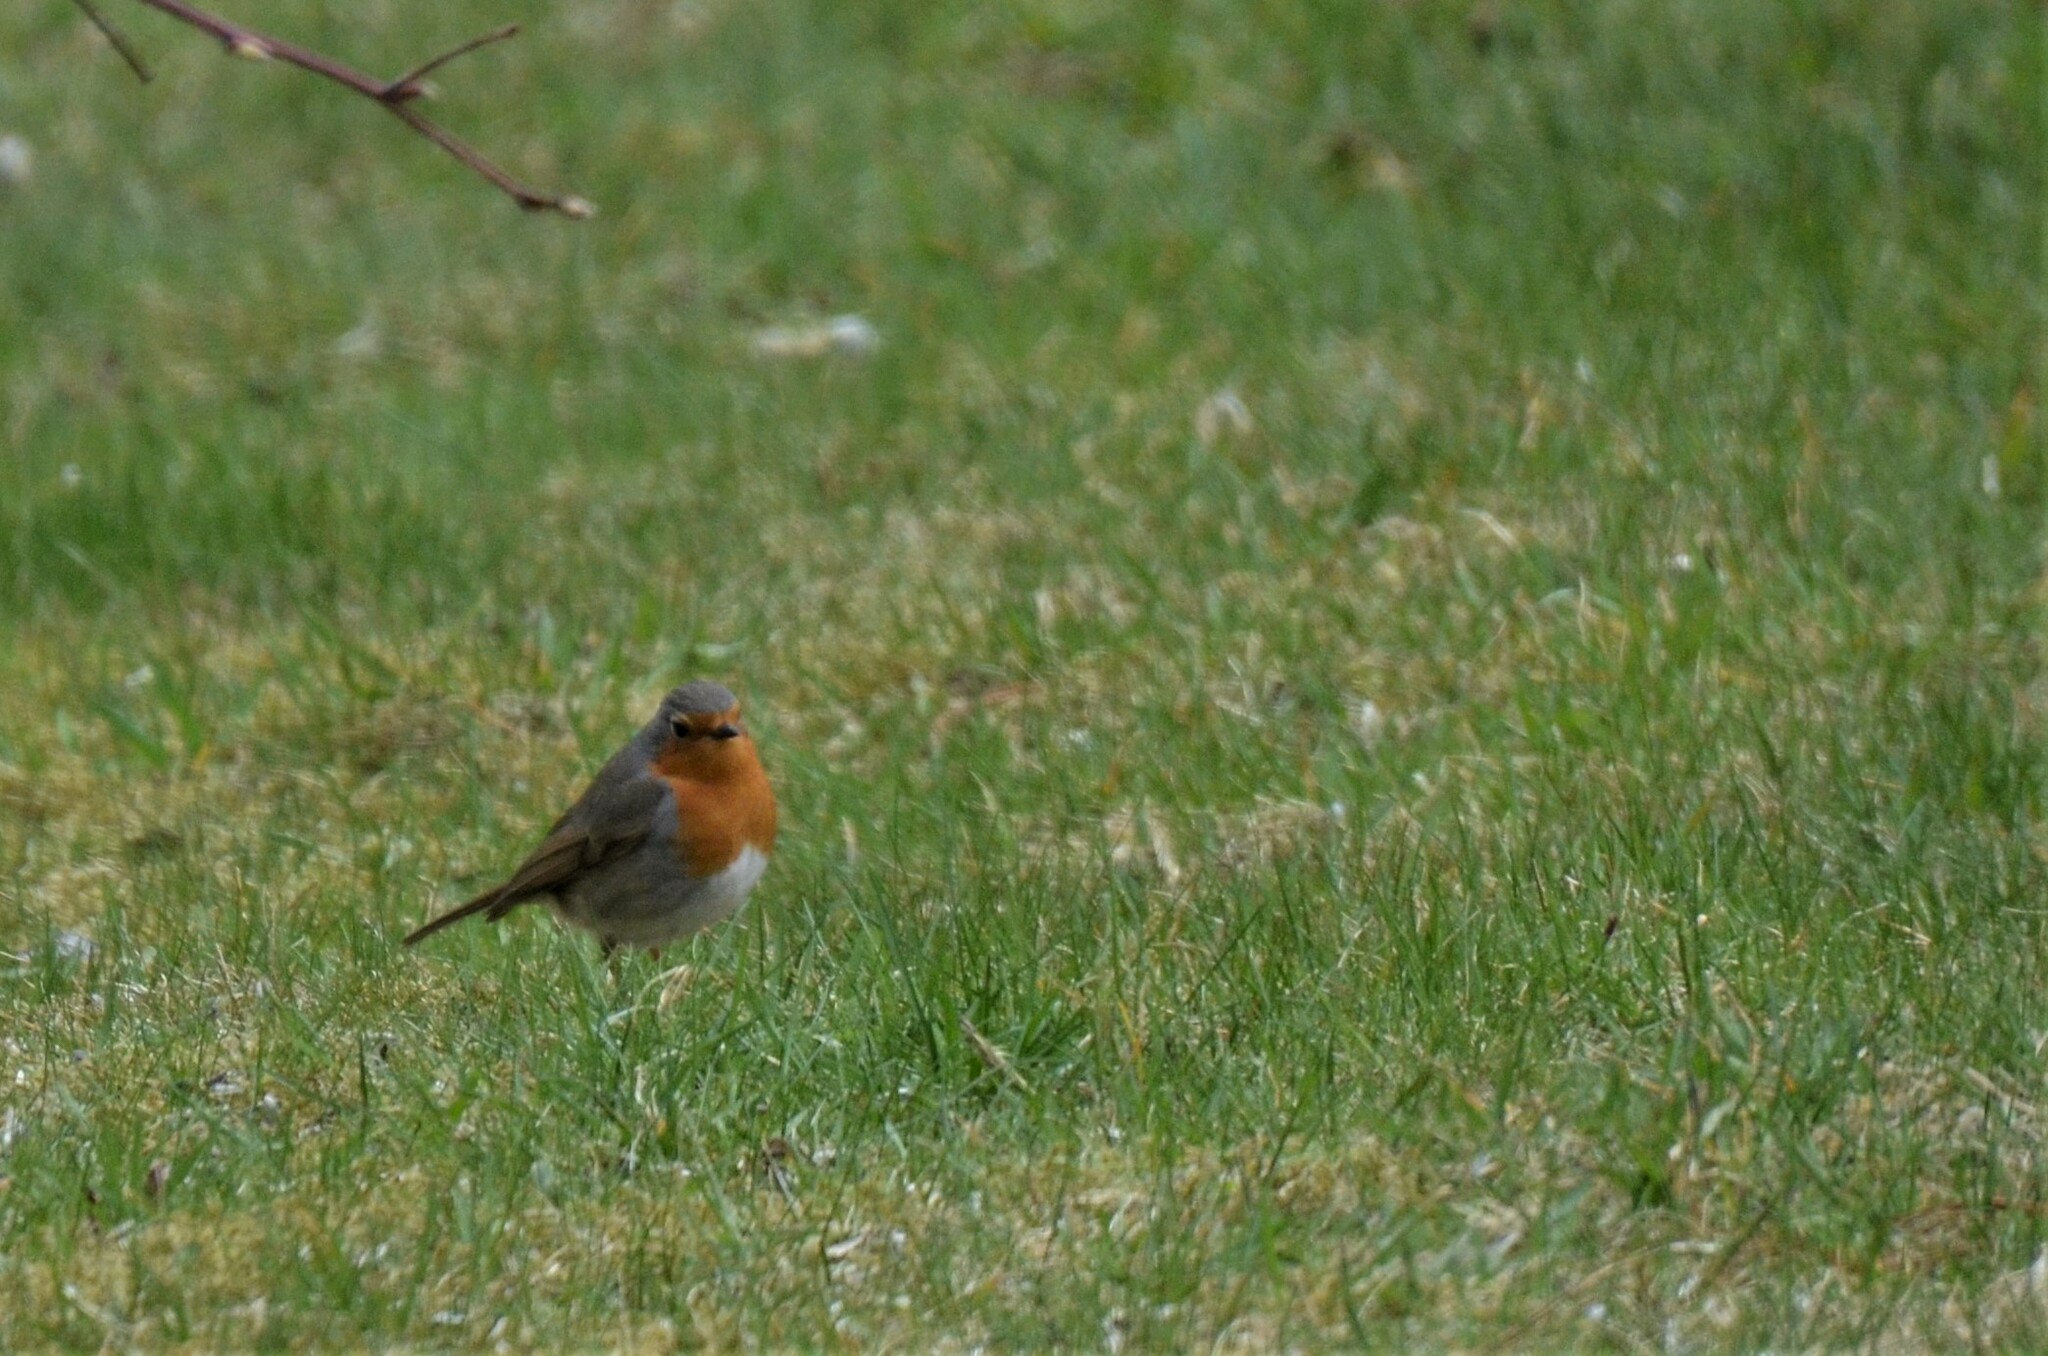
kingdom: Animalia
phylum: Chordata
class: Aves
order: Passeriformes
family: Muscicapidae
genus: Erithacus
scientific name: Erithacus rubecula
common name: European robin
